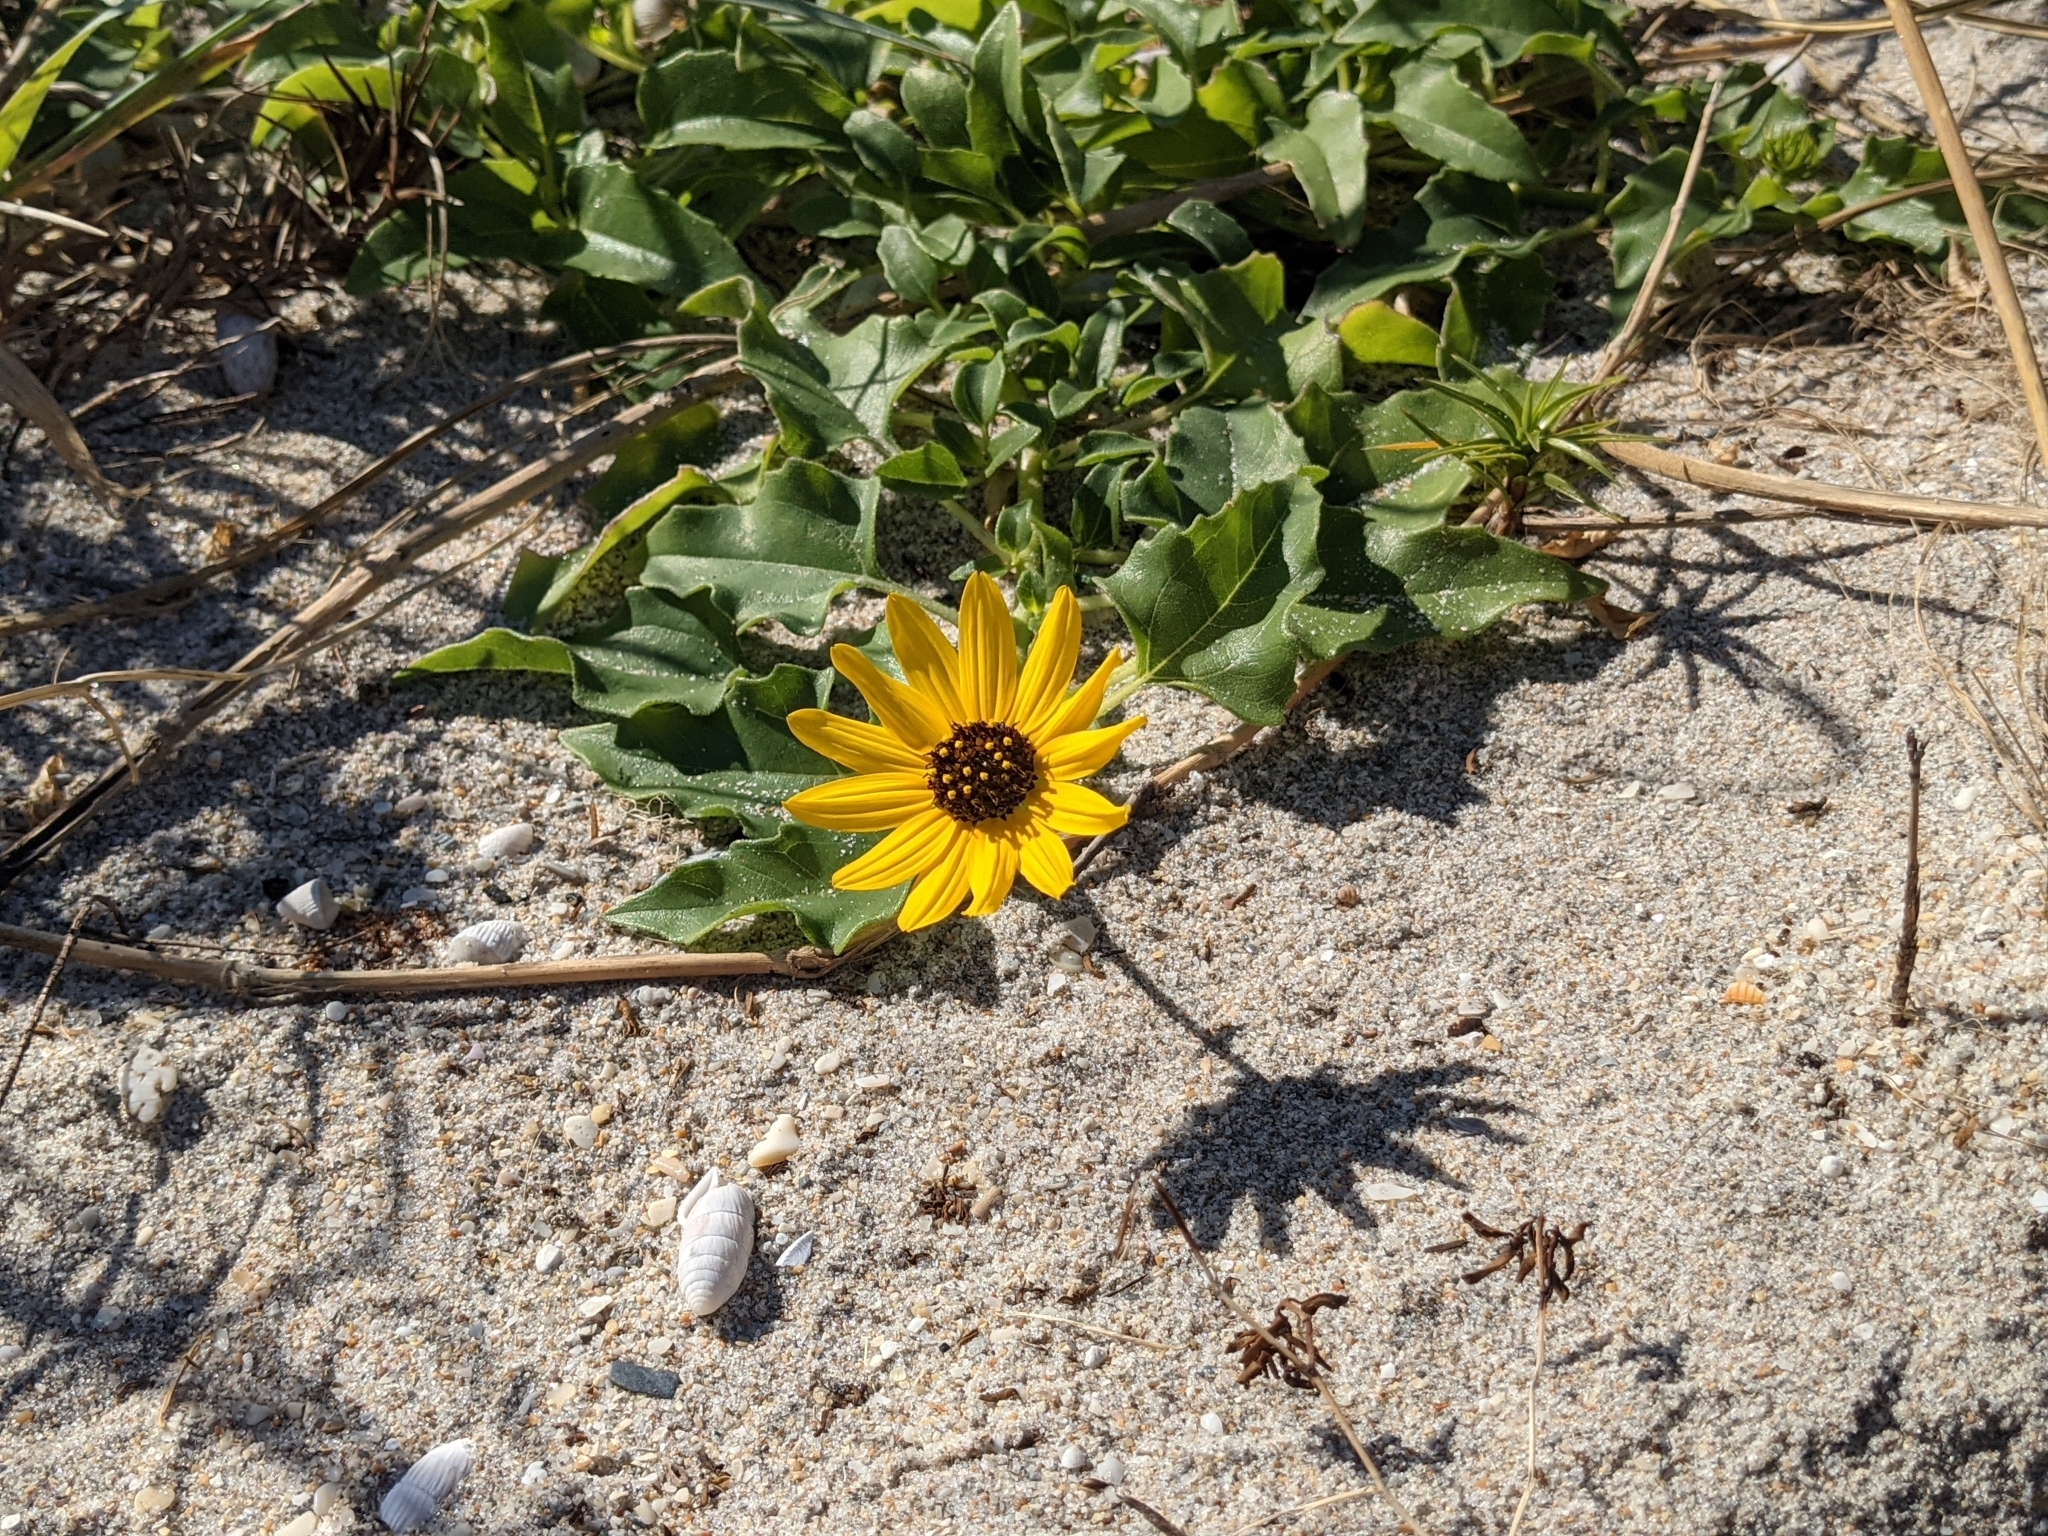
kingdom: Plantae
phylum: Tracheophyta
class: Magnoliopsida
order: Asterales
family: Asteraceae
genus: Helianthus
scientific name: Helianthus debilis
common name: Weak sunflower
